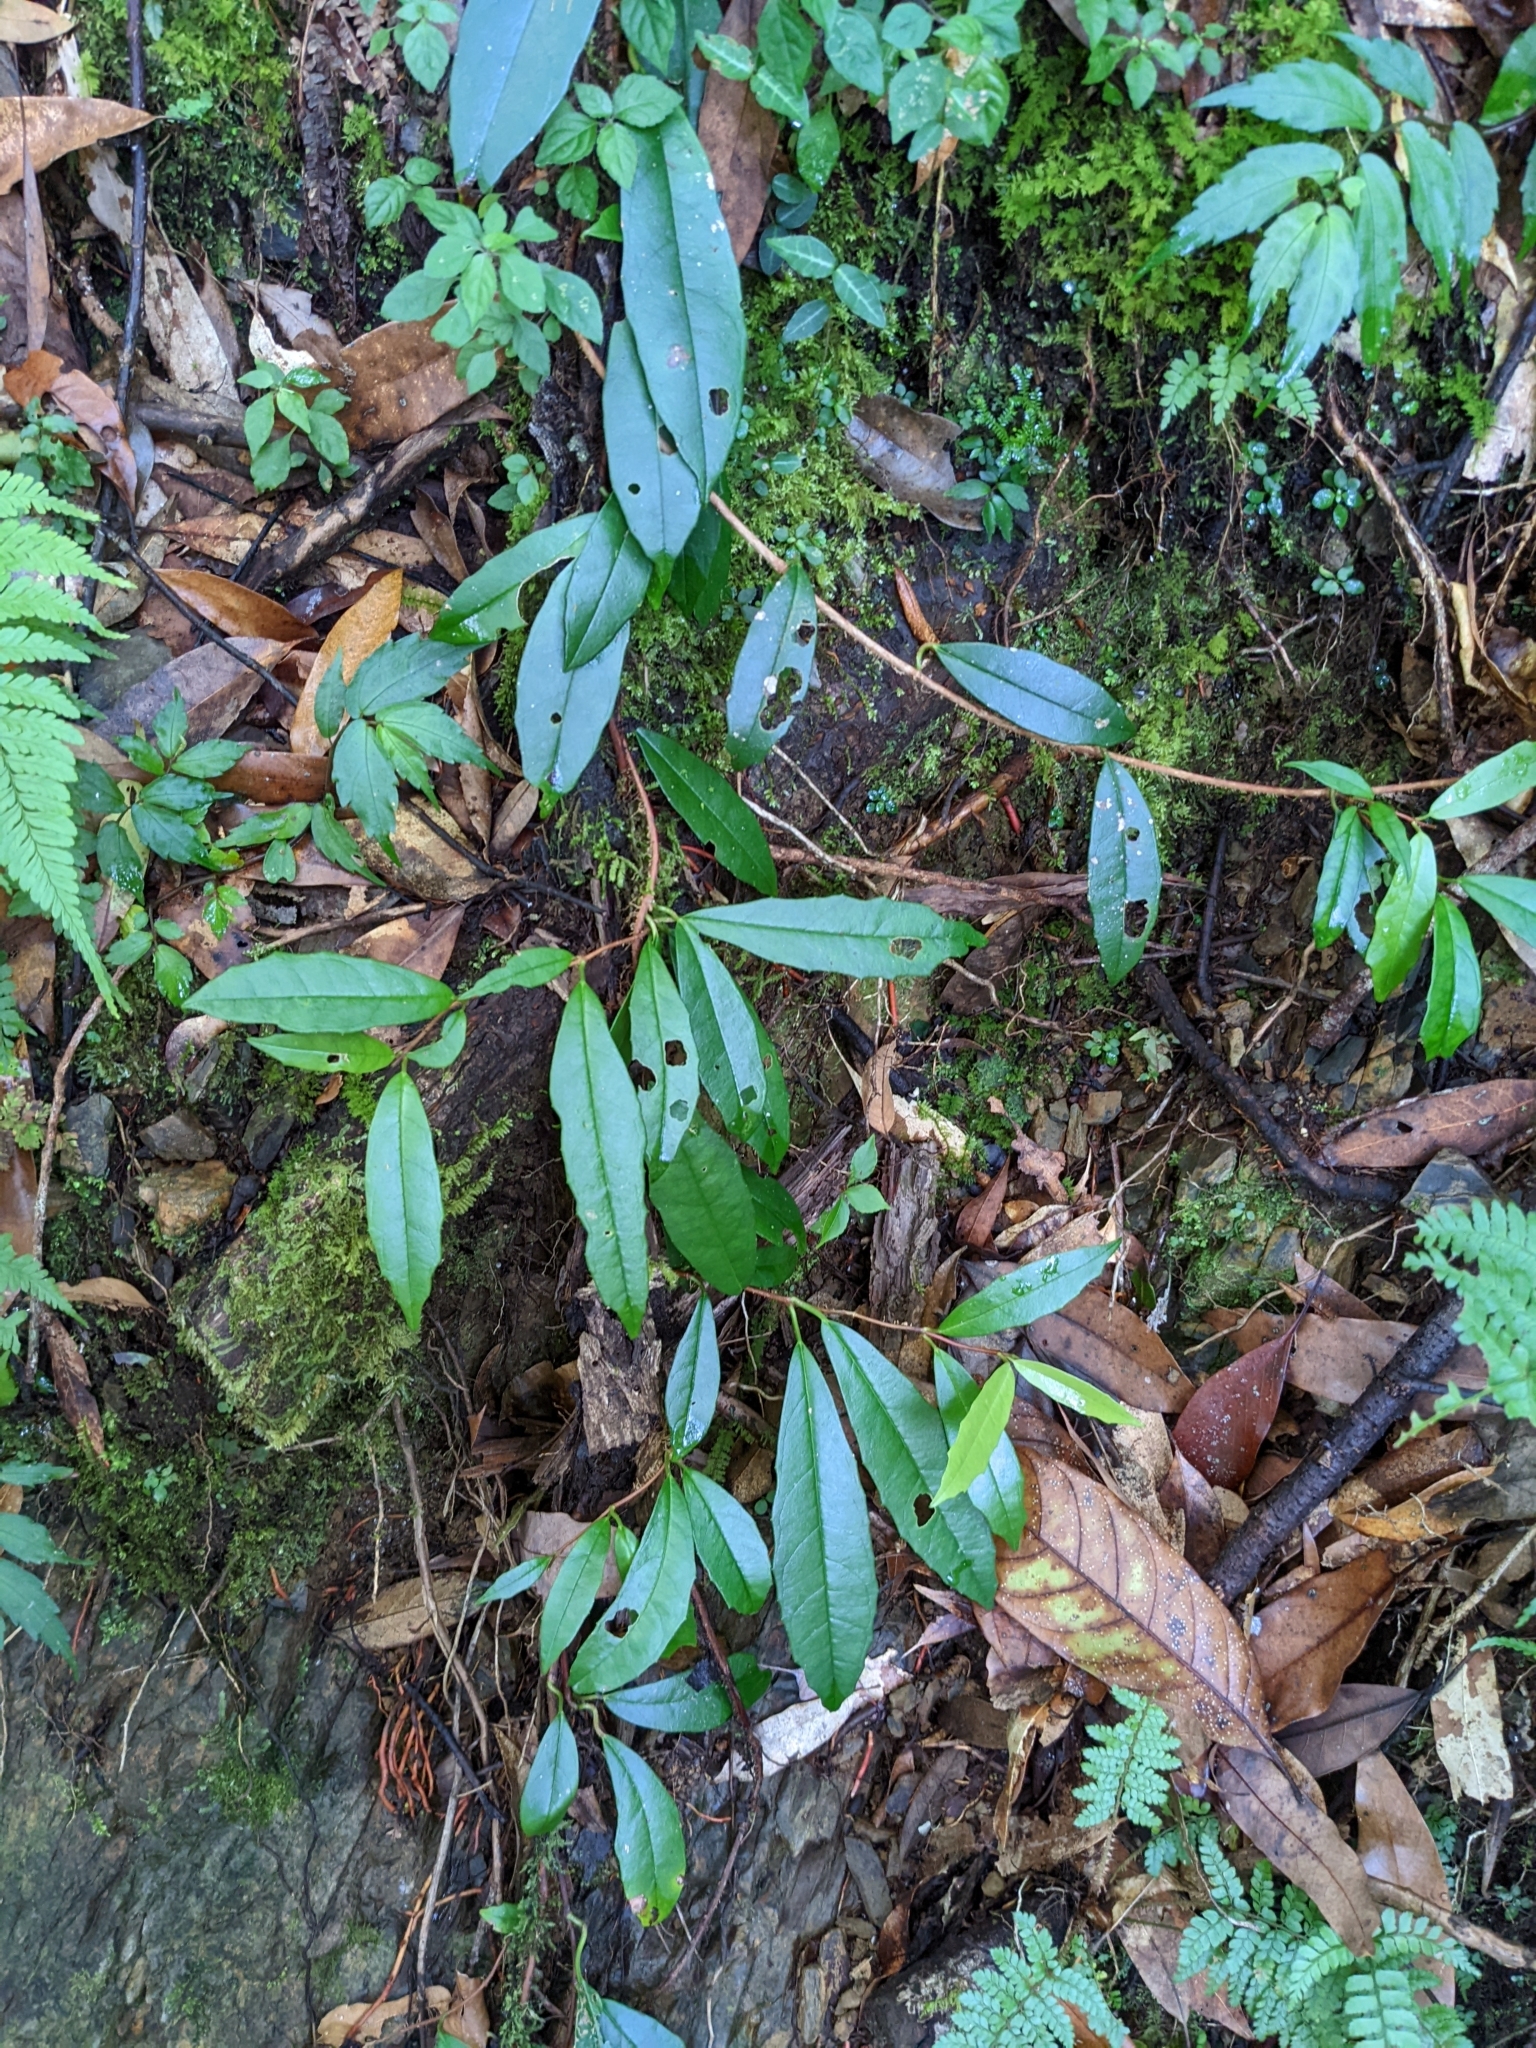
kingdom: Plantae
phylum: Tracheophyta
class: Magnoliopsida
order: Cornales
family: Hydrangeaceae
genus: Hydrangea
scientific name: Hydrangea viburnoides
